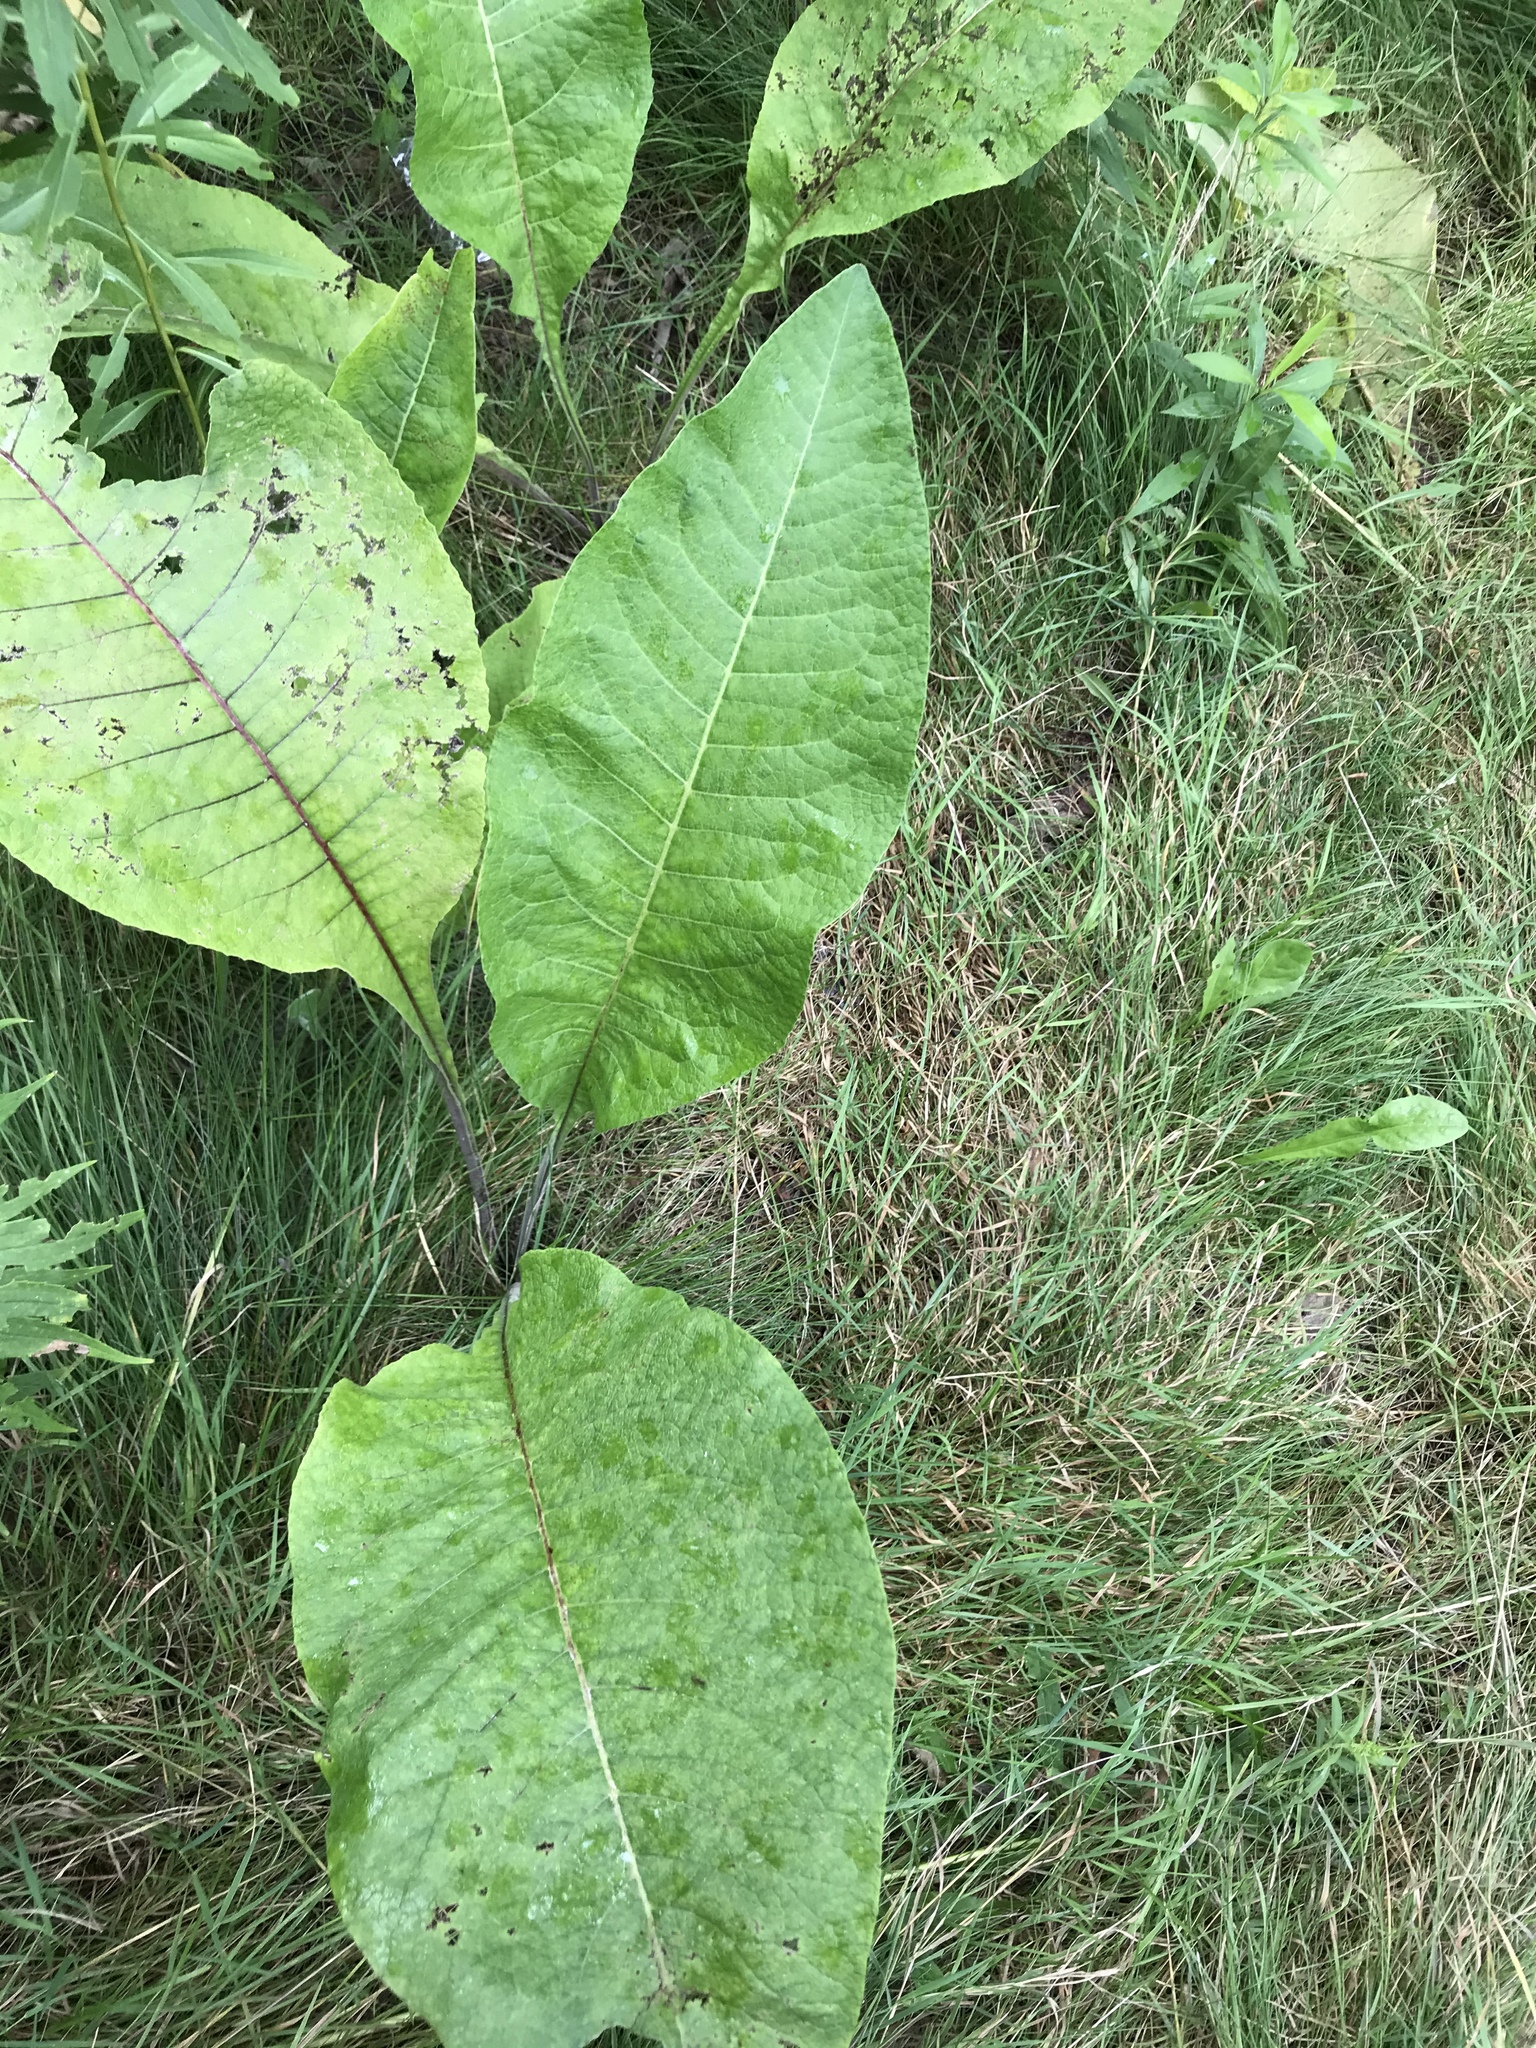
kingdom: Plantae
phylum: Tracheophyta
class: Magnoliopsida
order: Asterales
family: Asteraceae
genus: Inula
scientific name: Inula helenium
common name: Elecampane
